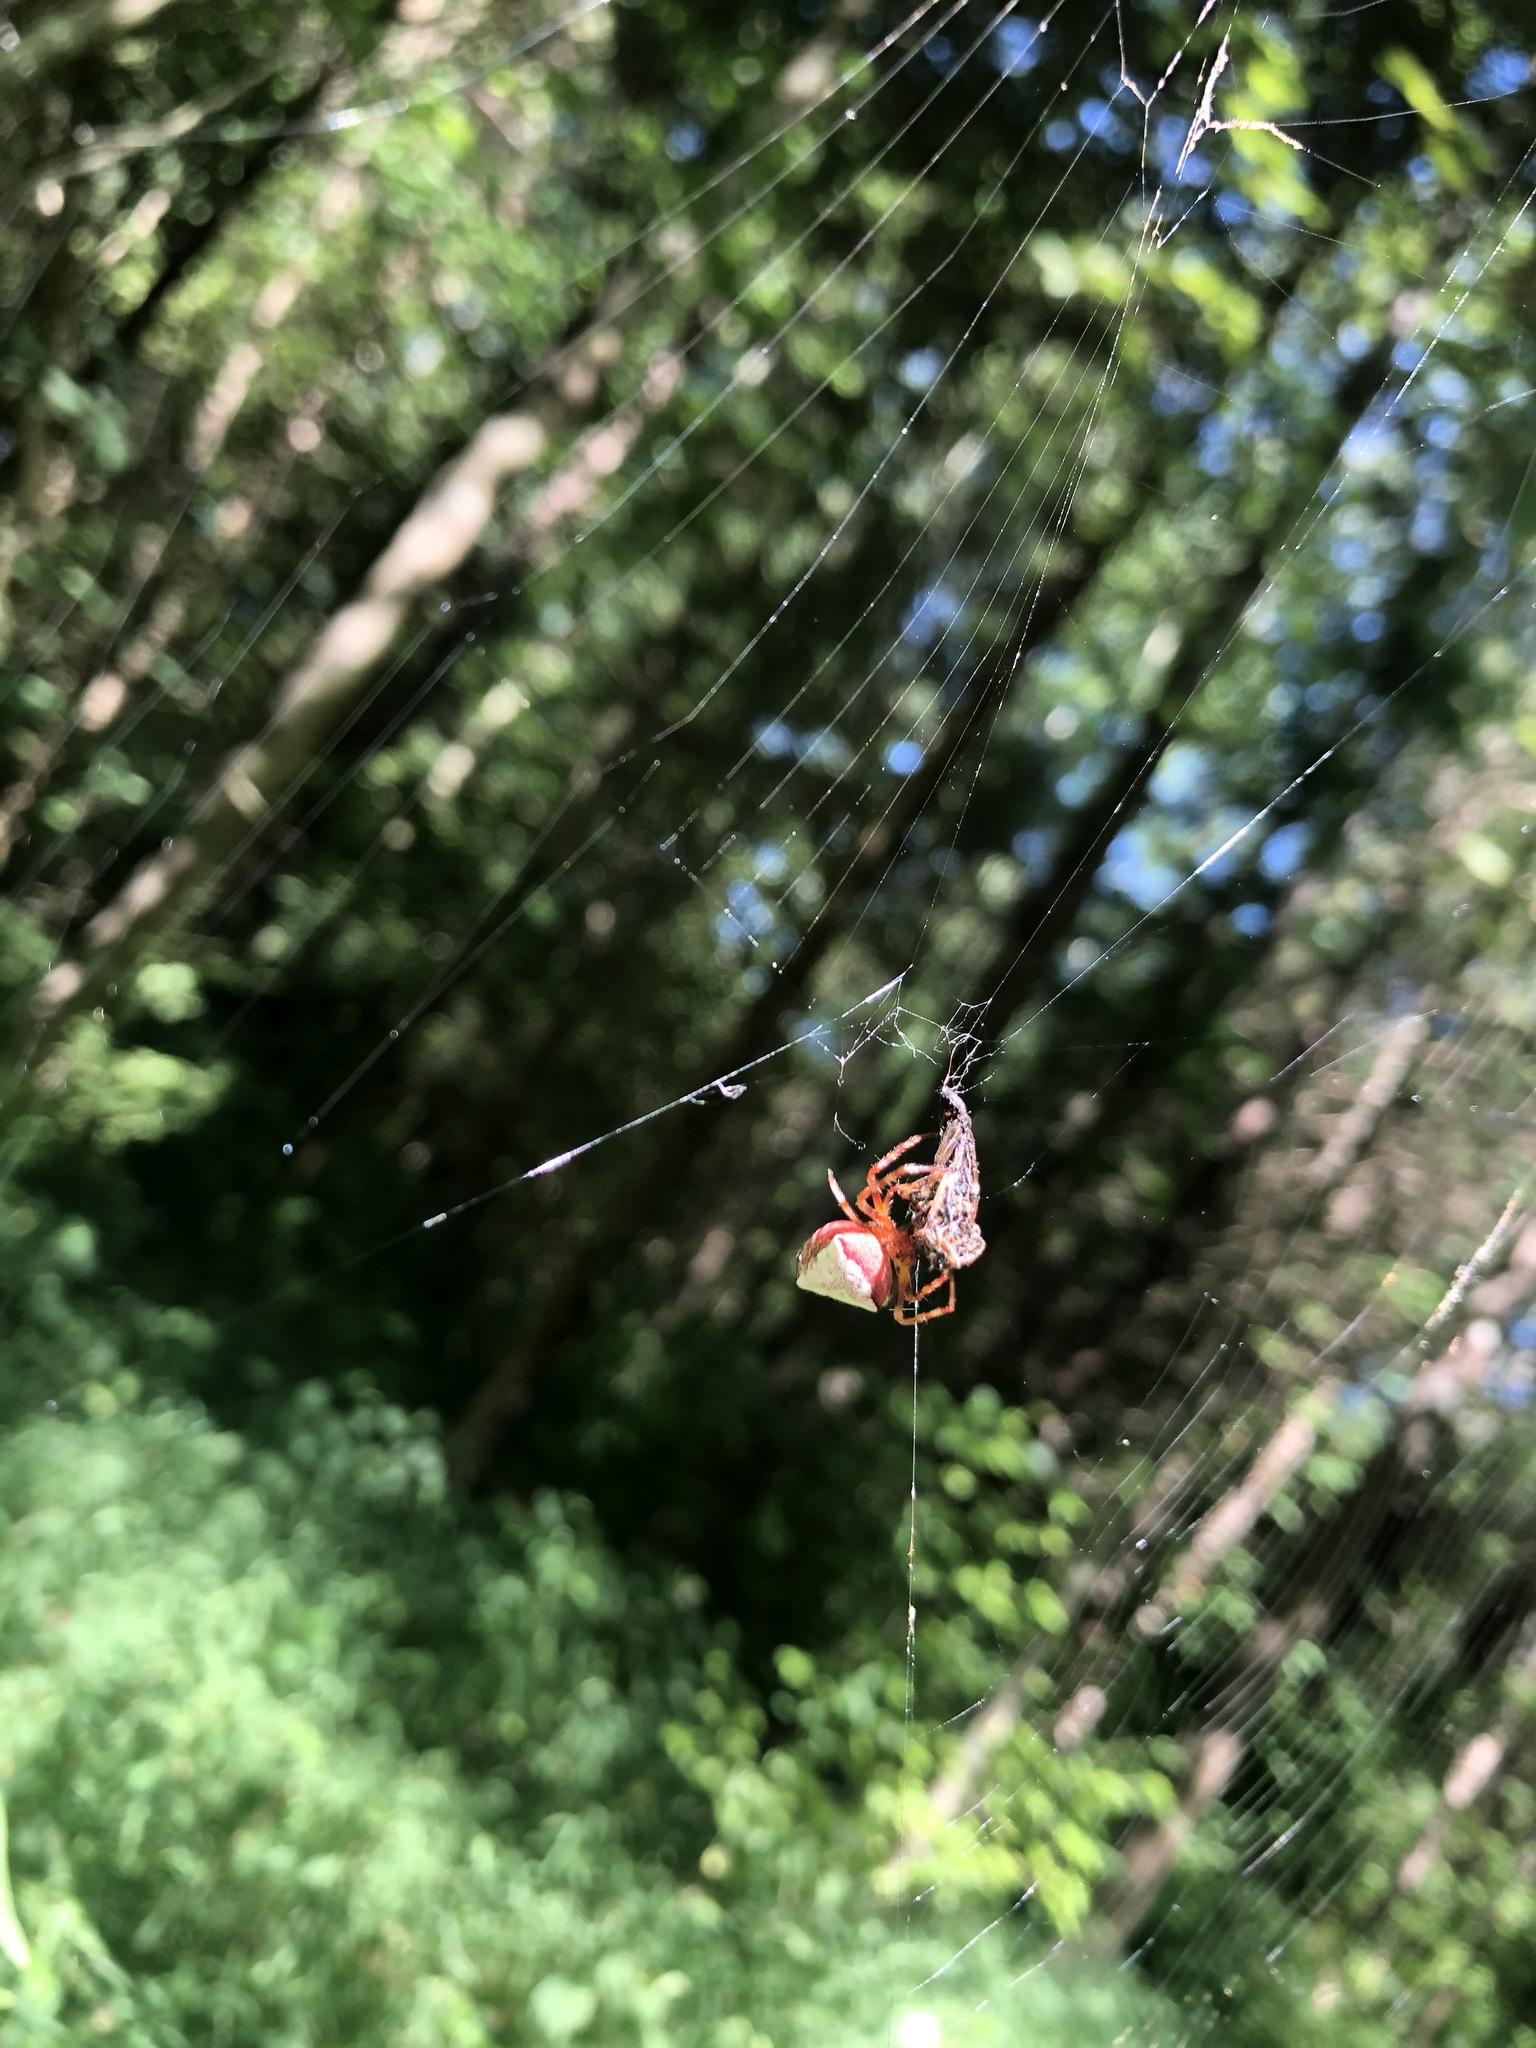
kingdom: Animalia
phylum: Arthropoda
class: Arachnida
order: Araneae
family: Araneidae
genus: Verrucosa
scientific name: Verrucosa arenata
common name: Orb weavers
